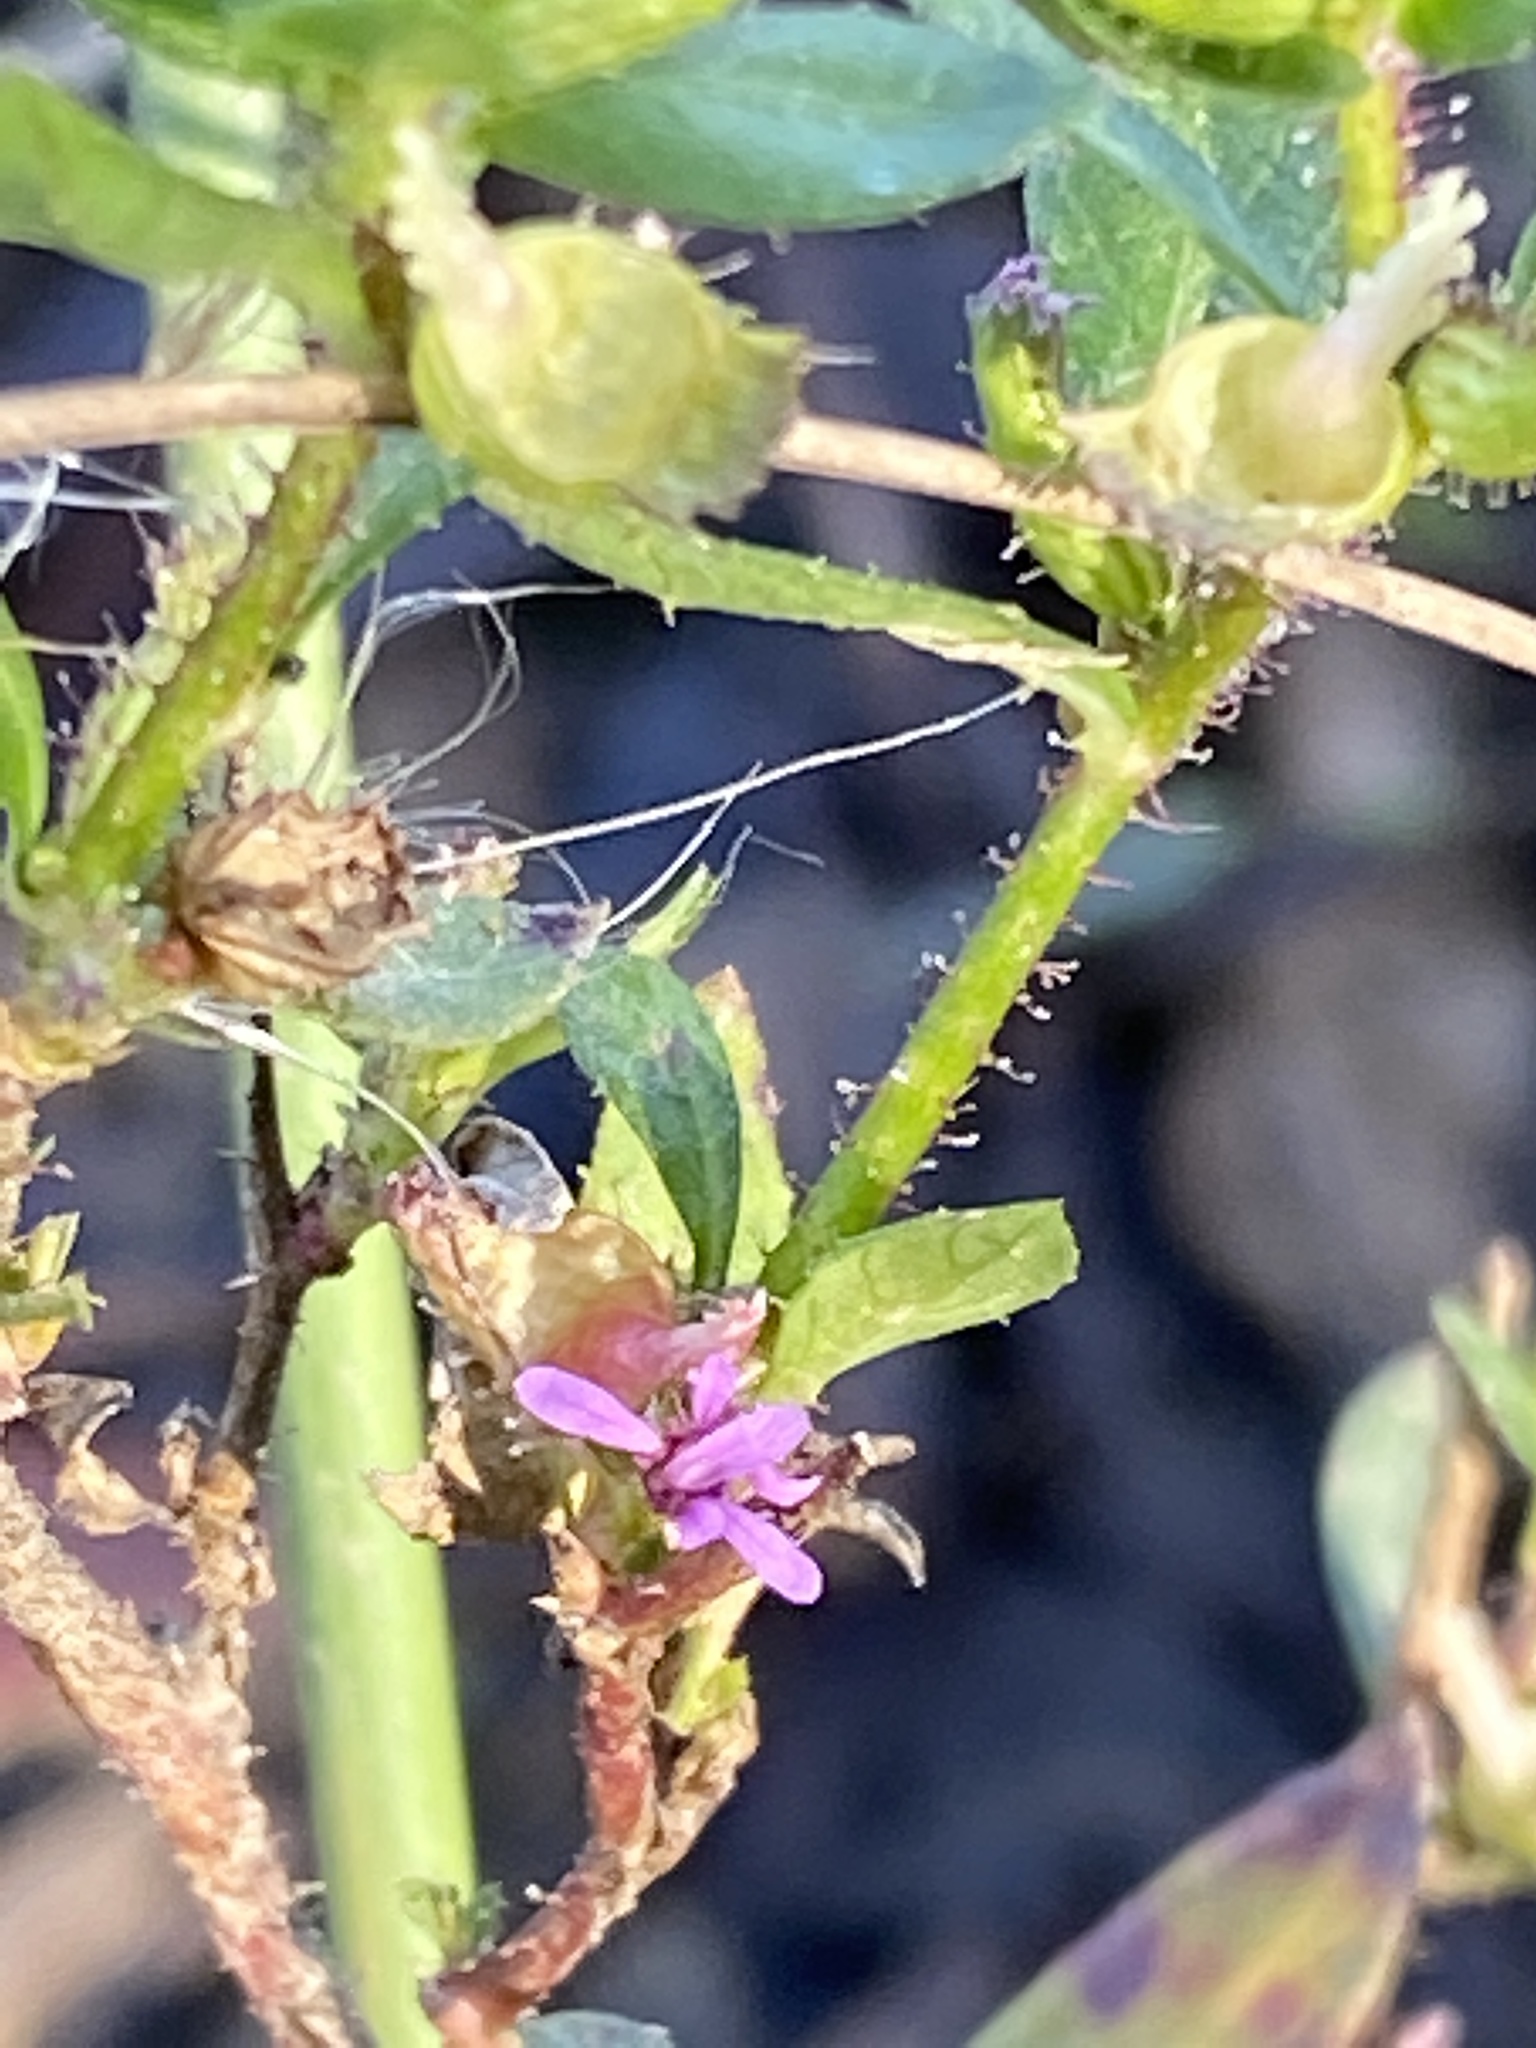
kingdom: Plantae
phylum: Tracheophyta
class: Magnoliopsida
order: Myrtales
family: Lythraceae
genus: Cuphea
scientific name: Cuphea carthagenensis
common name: Colombian waxweed
